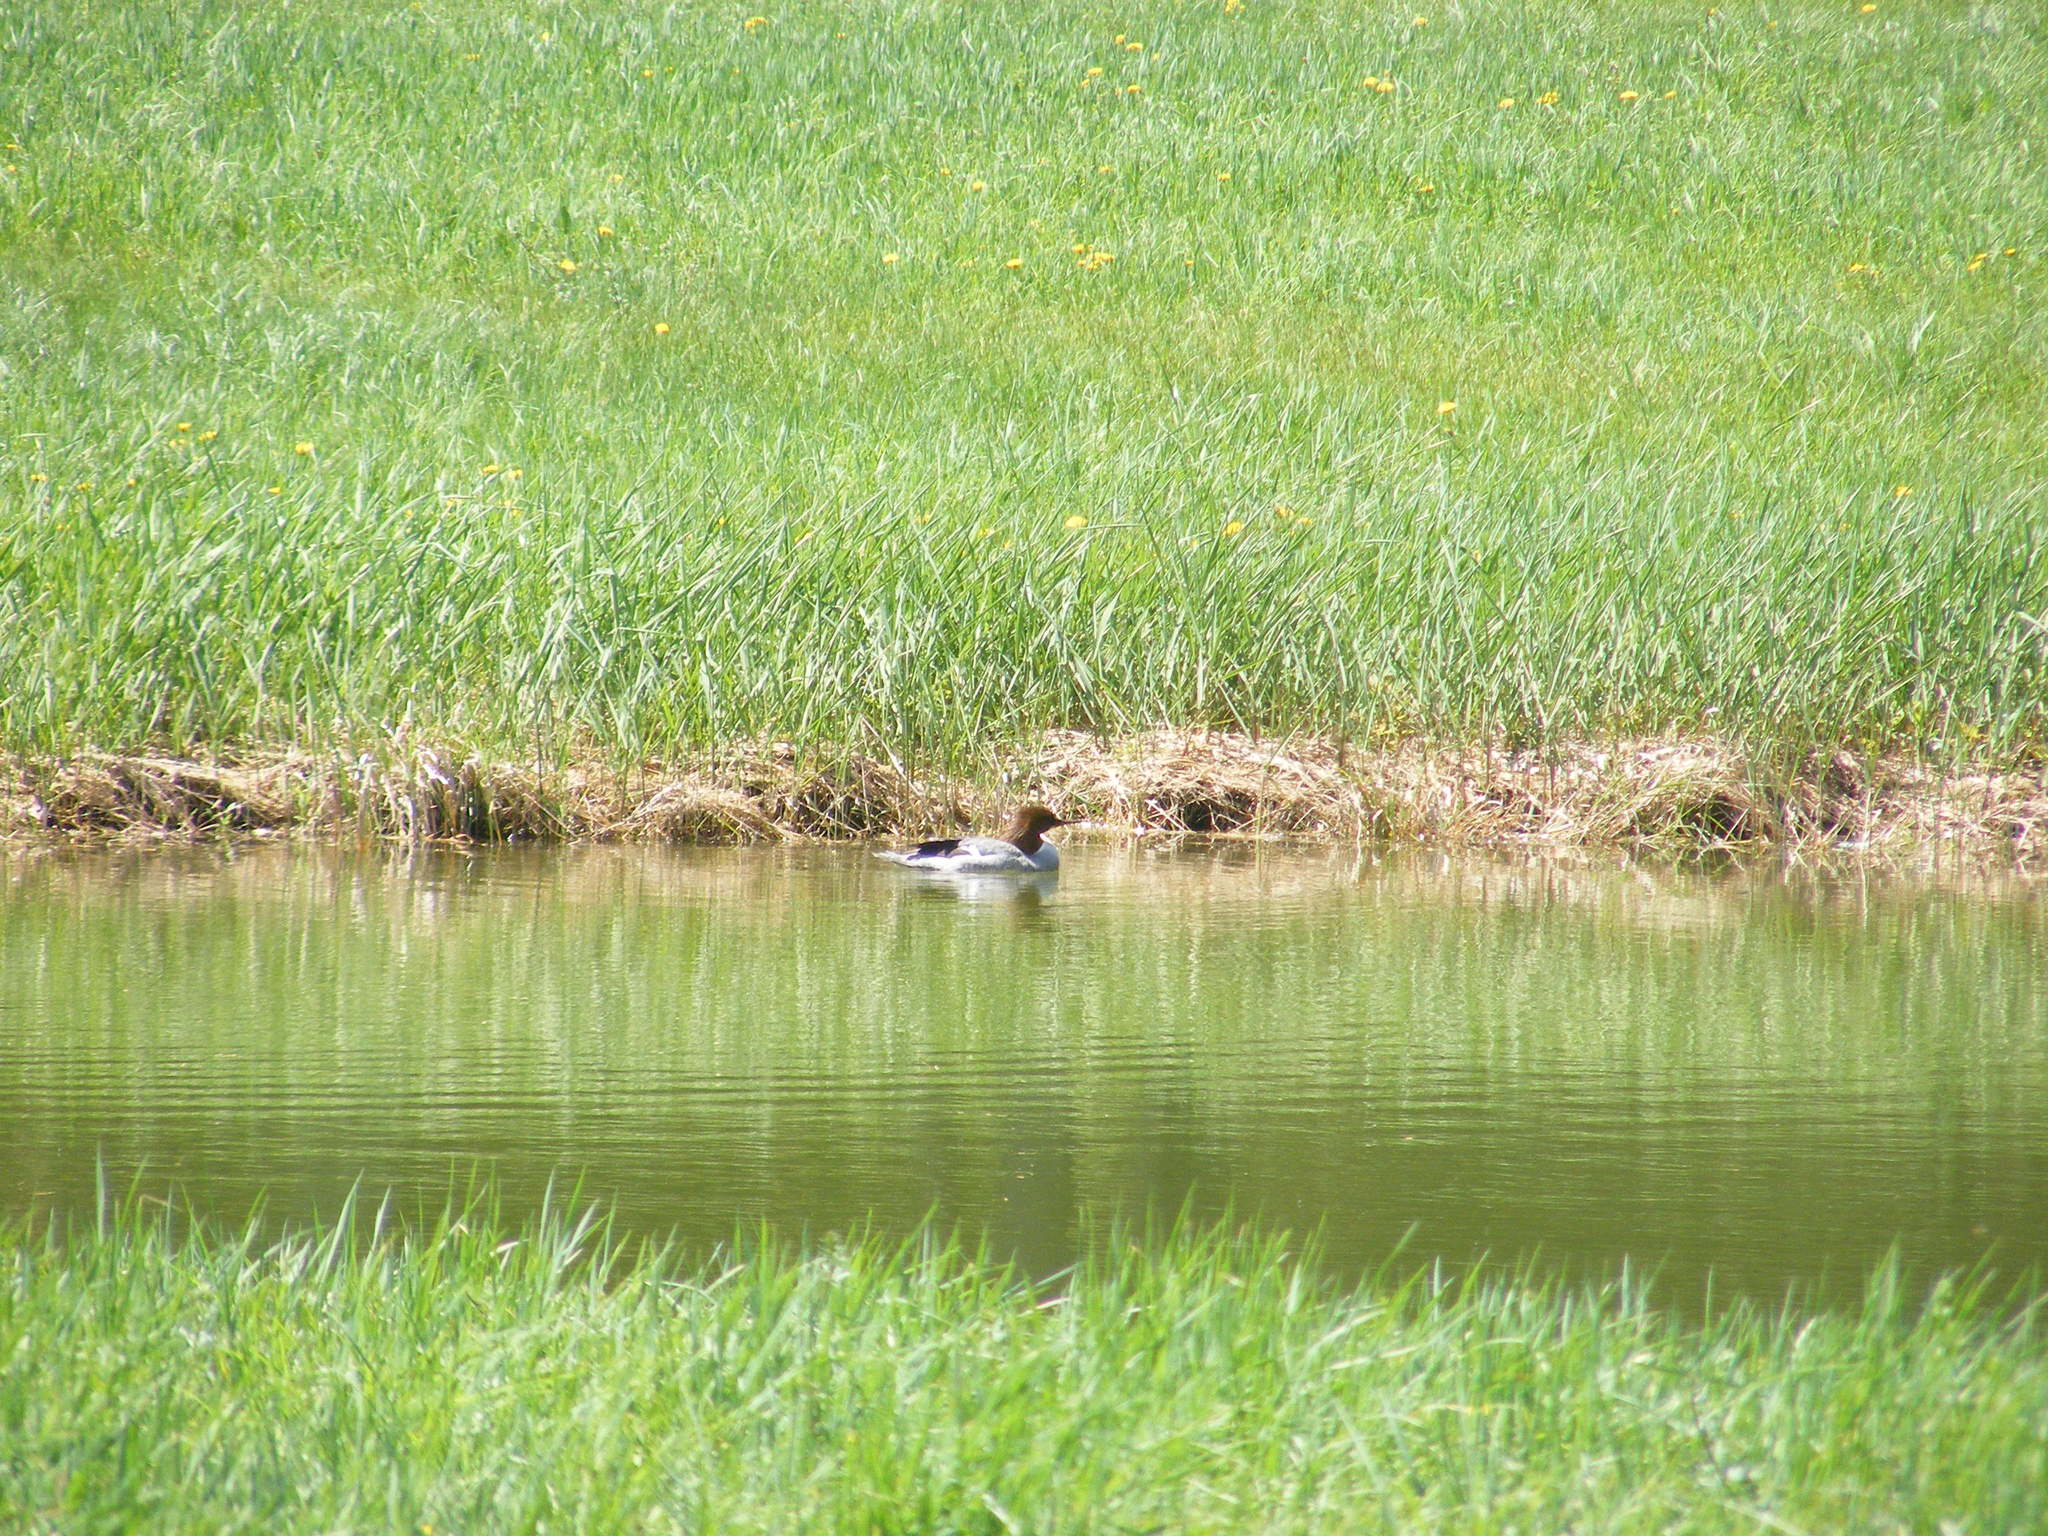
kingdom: Animalia
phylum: Chordata
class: Aves
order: Anseriformes
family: Anatidae
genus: Mergus
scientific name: Mergus merganser
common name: Common merganser
